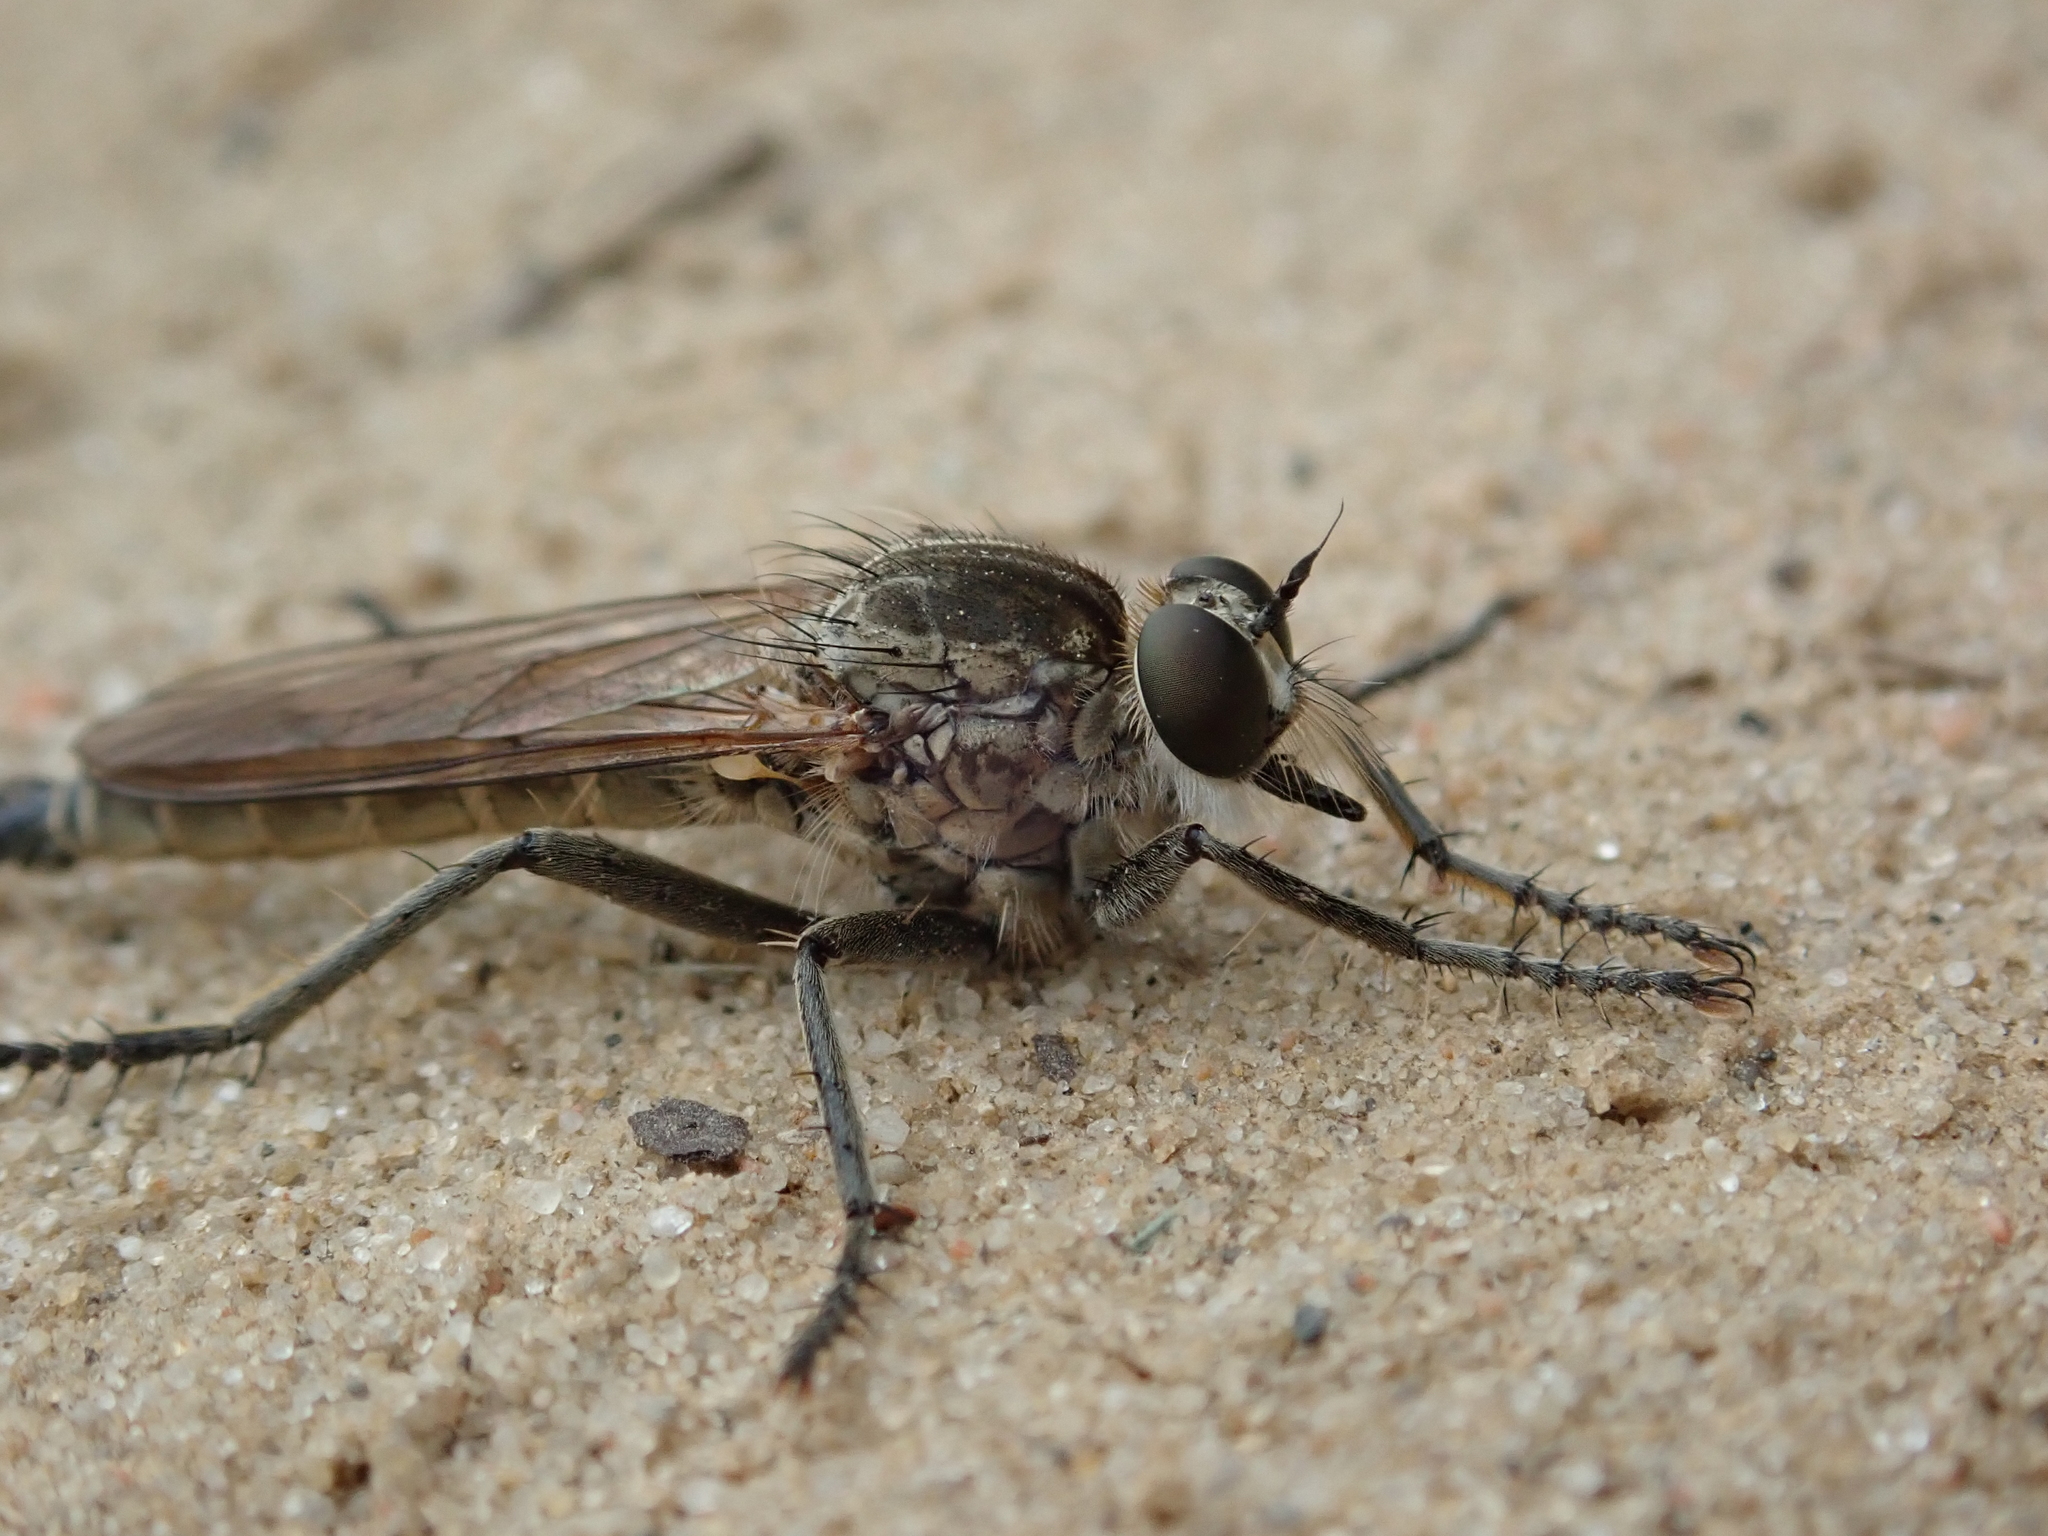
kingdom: Animalia
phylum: Arthropoda
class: Insecta
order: Diptera
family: Asilidae
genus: Philonicus
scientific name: Philonicus albiceps
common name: Dune robberfly
